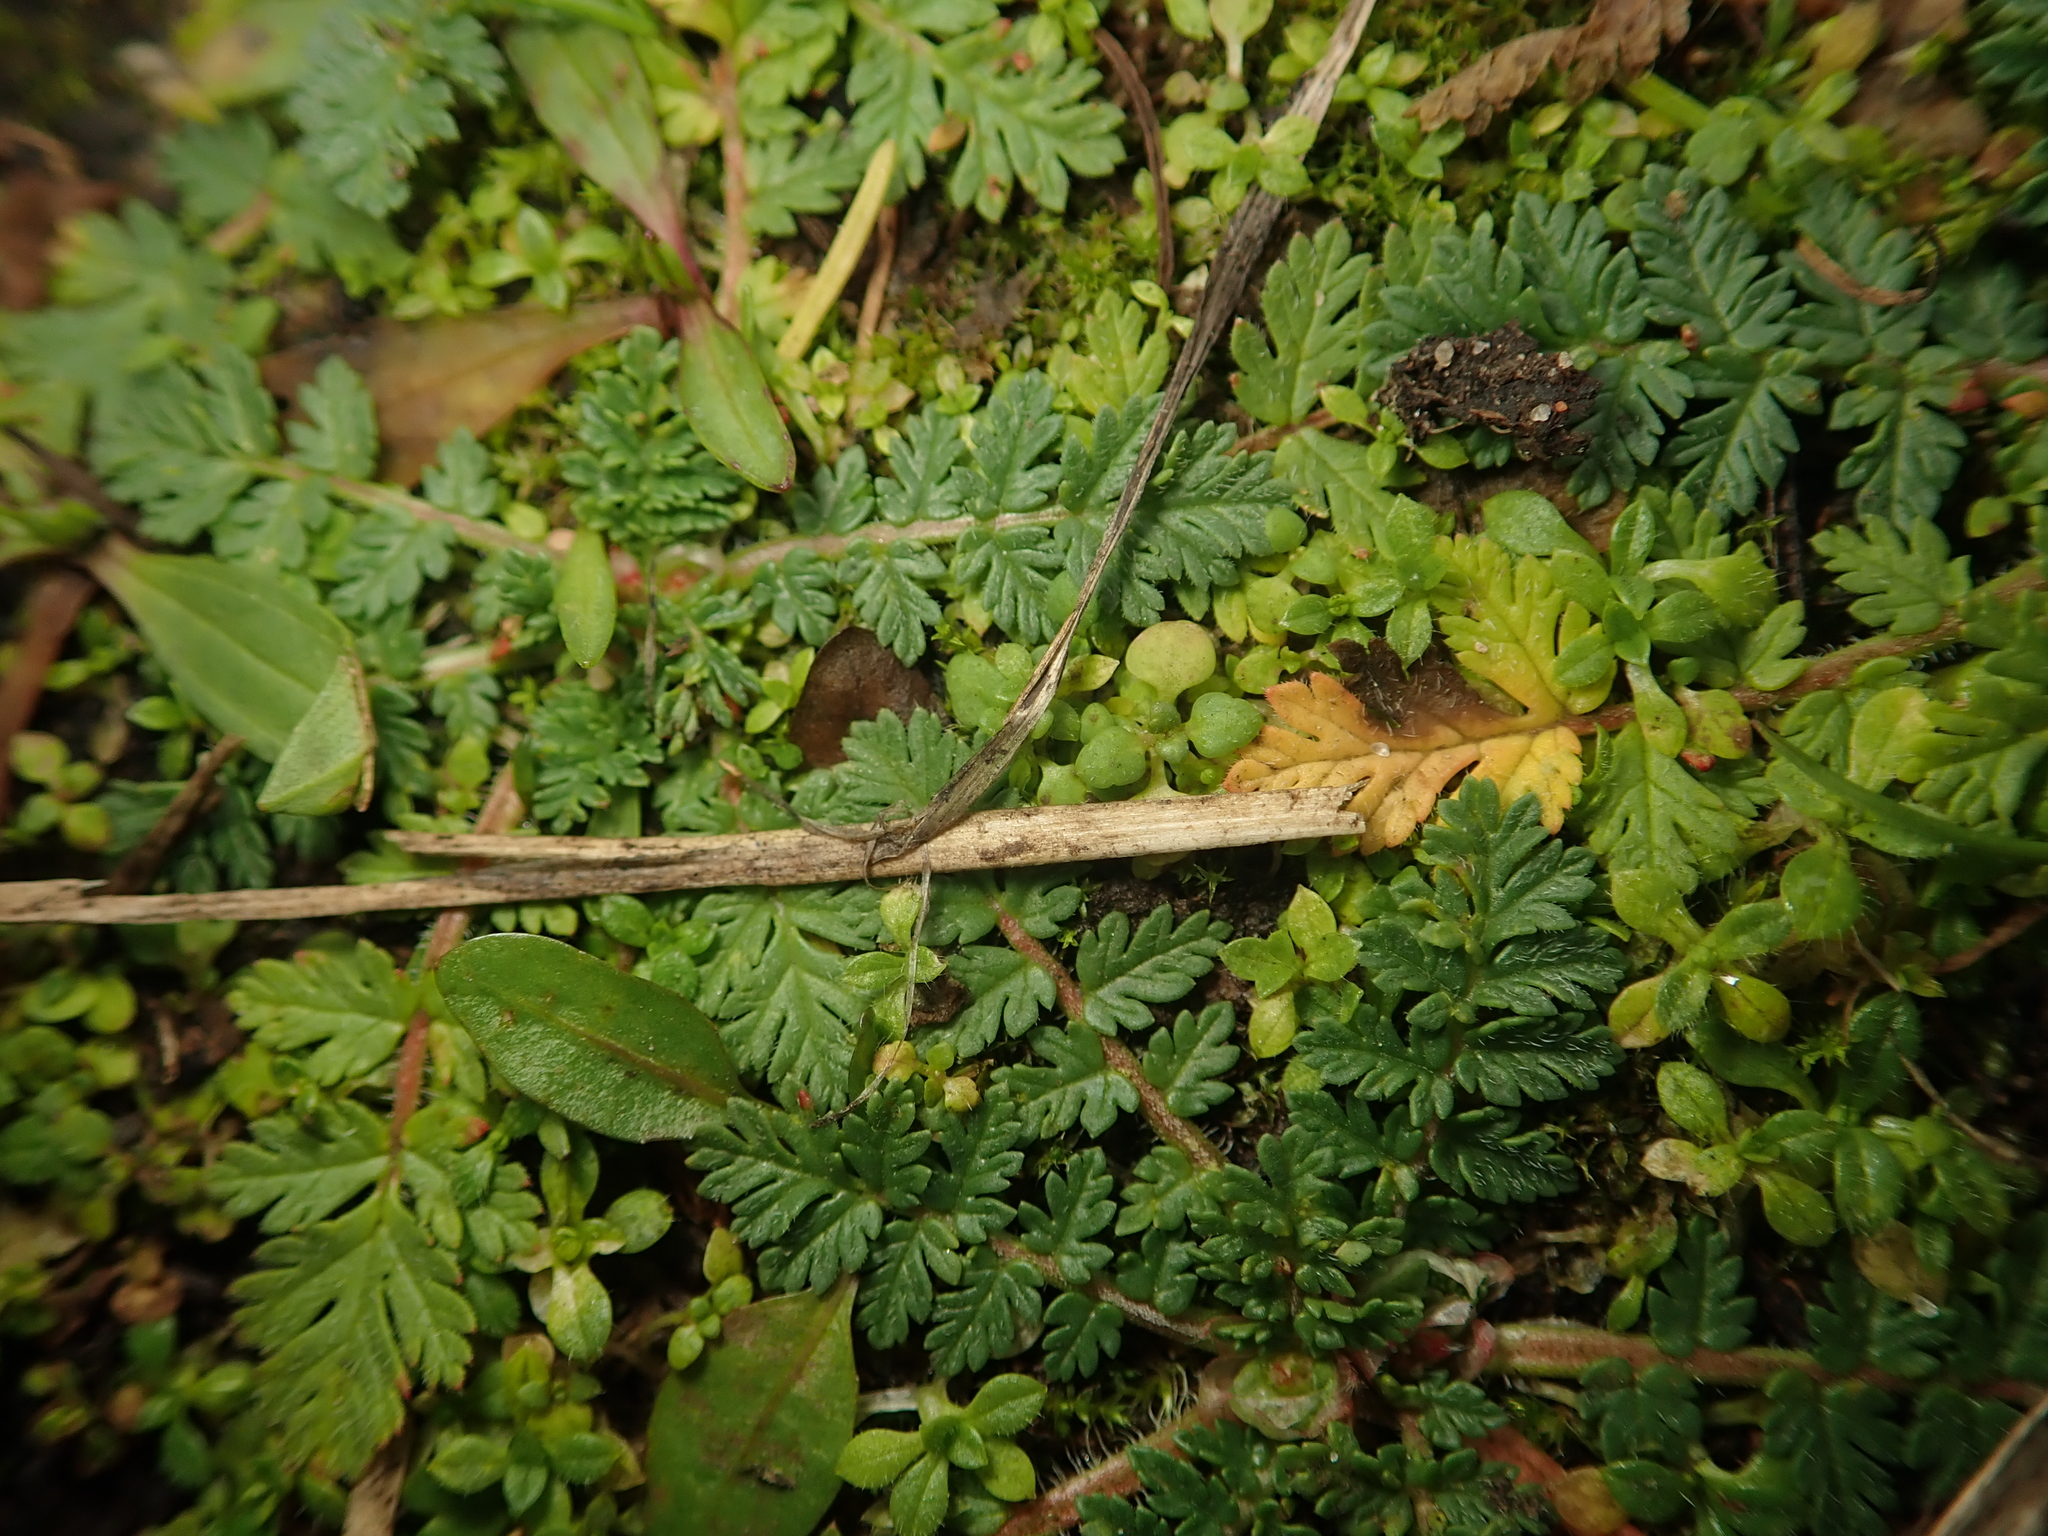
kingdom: Plantae
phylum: Tracheophyta
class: Magnoliopsida
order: Geraniales
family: Geraniaceae
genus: Erodium
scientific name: Erodium cicutarium
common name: Common stork's-bill
